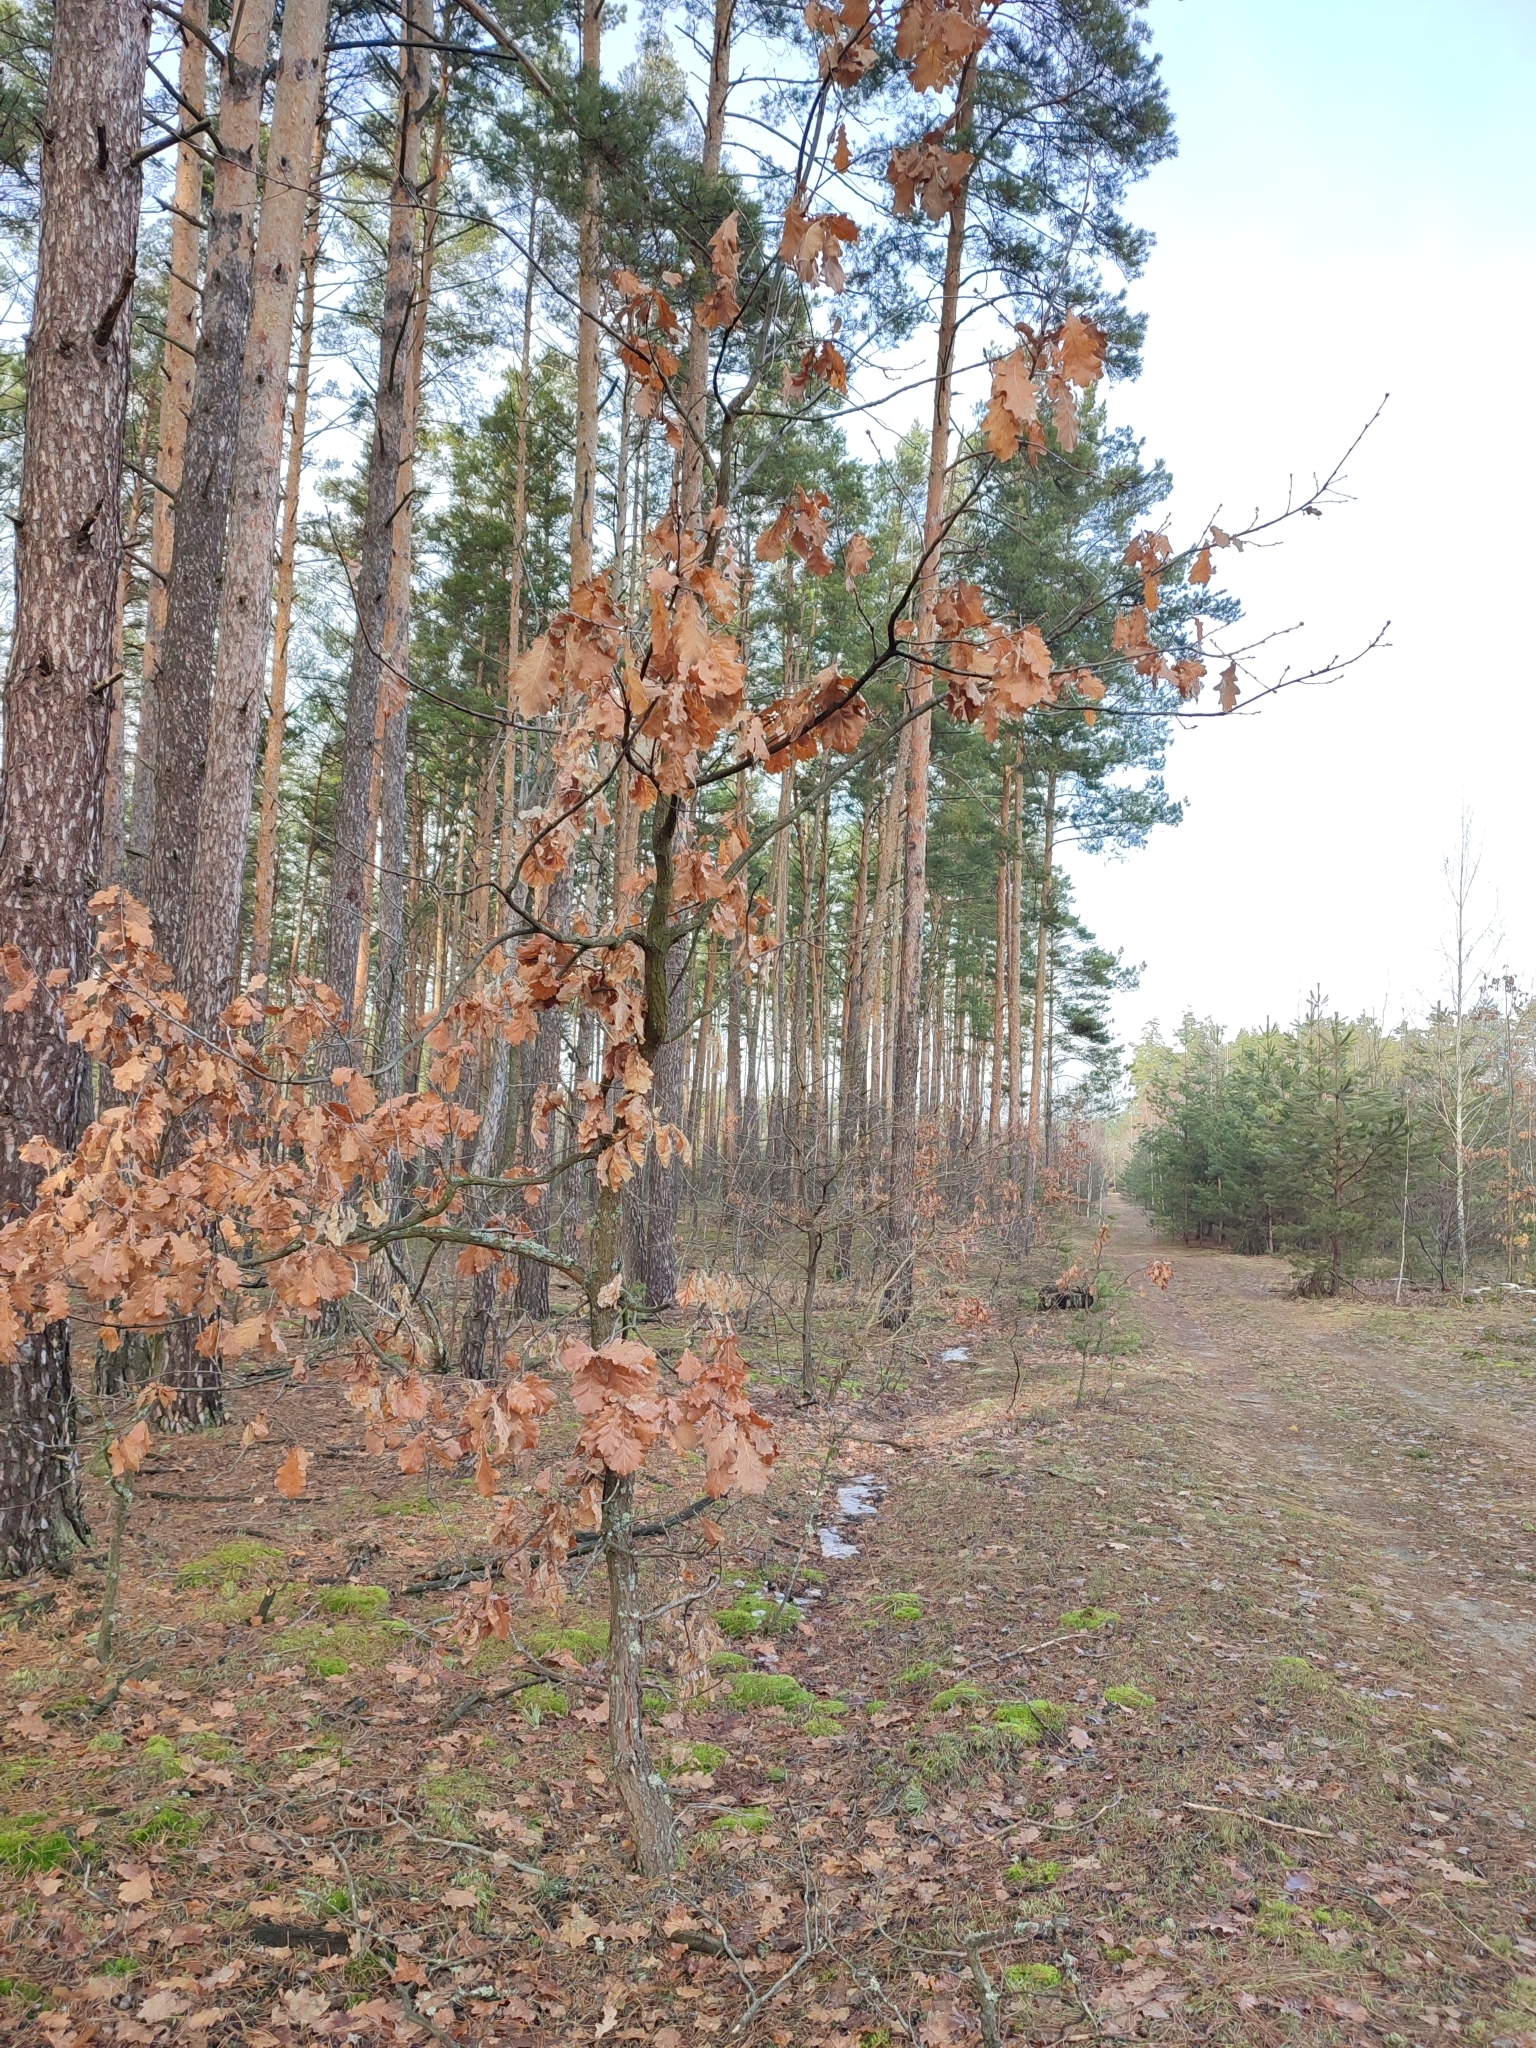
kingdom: Plantae
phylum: Tracheophyta
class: Magnoliopsida
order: Fagales
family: Fagaceae
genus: Quercus
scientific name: Quercus robur
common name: Pedunculate oak
